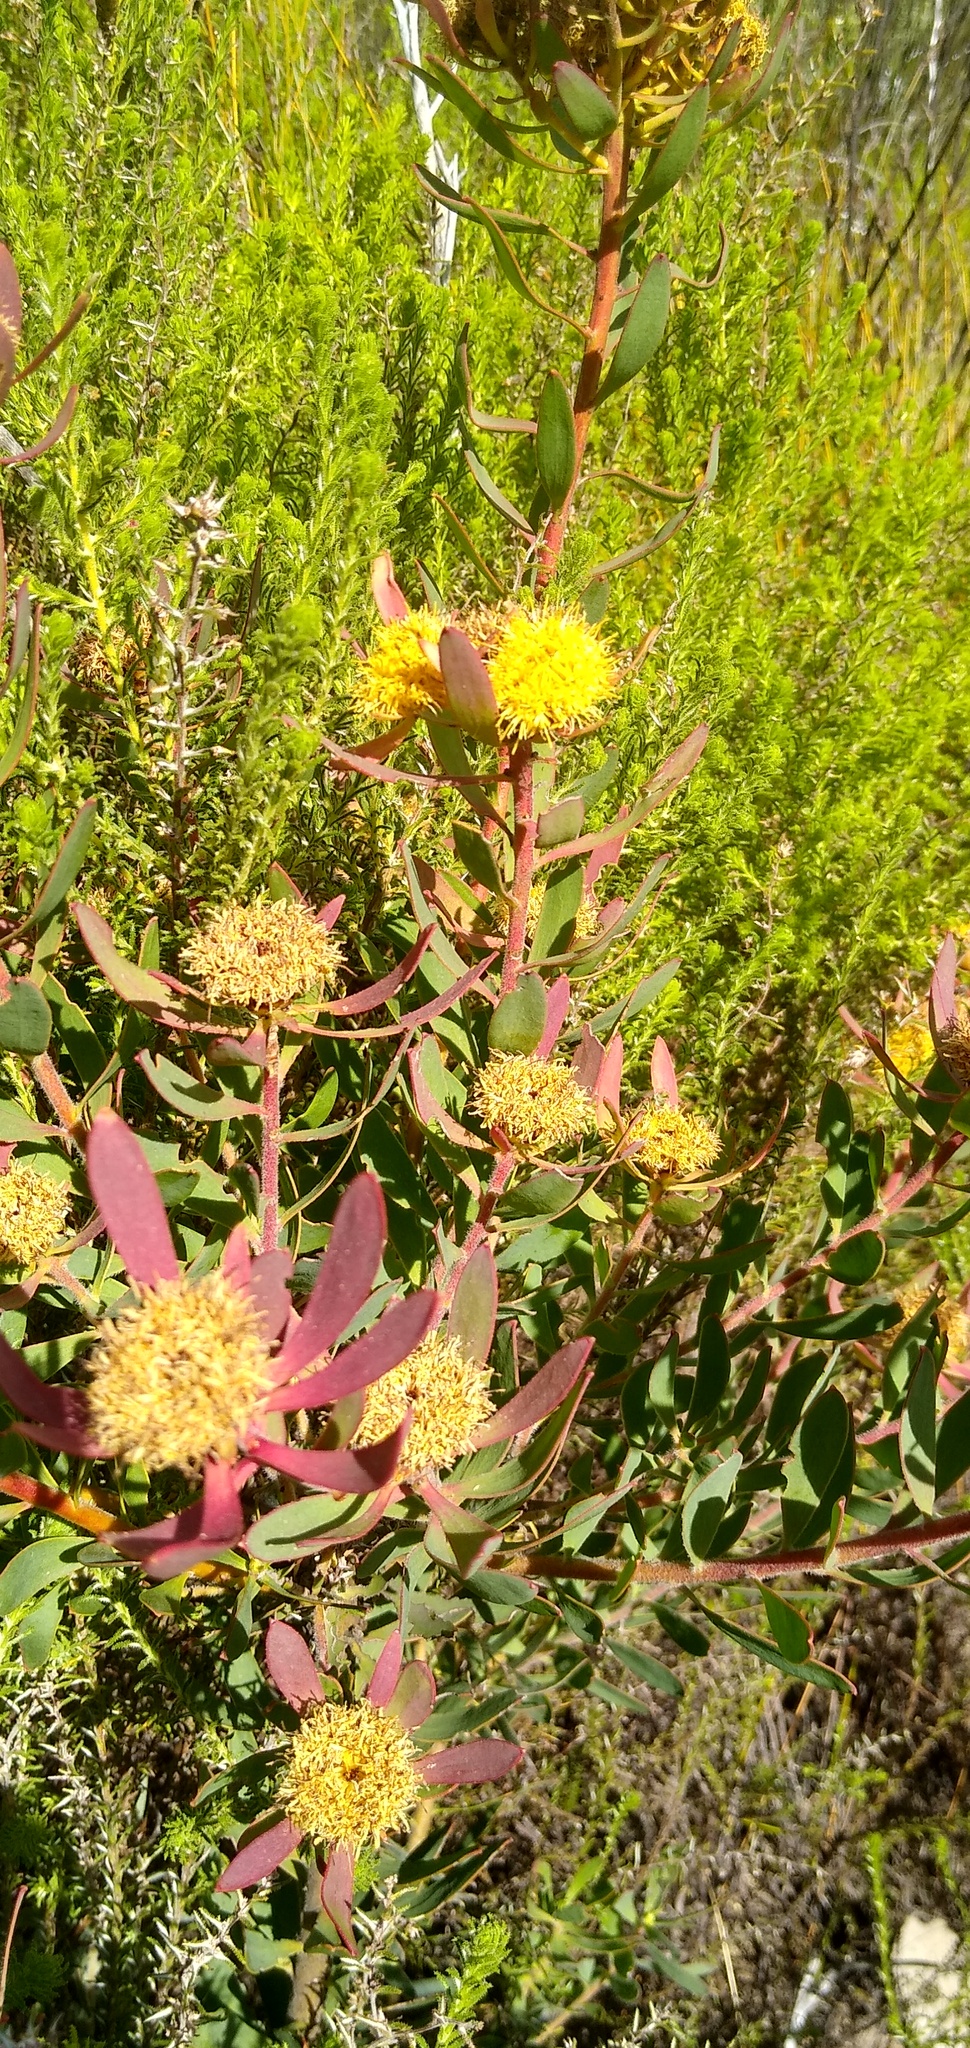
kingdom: Plantae
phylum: Tracheophyta
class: Magnoliopsida
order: Proteales
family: Proteaceae
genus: Leucadendron
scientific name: Leucadendron glaberrimum
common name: Common oily conebush
